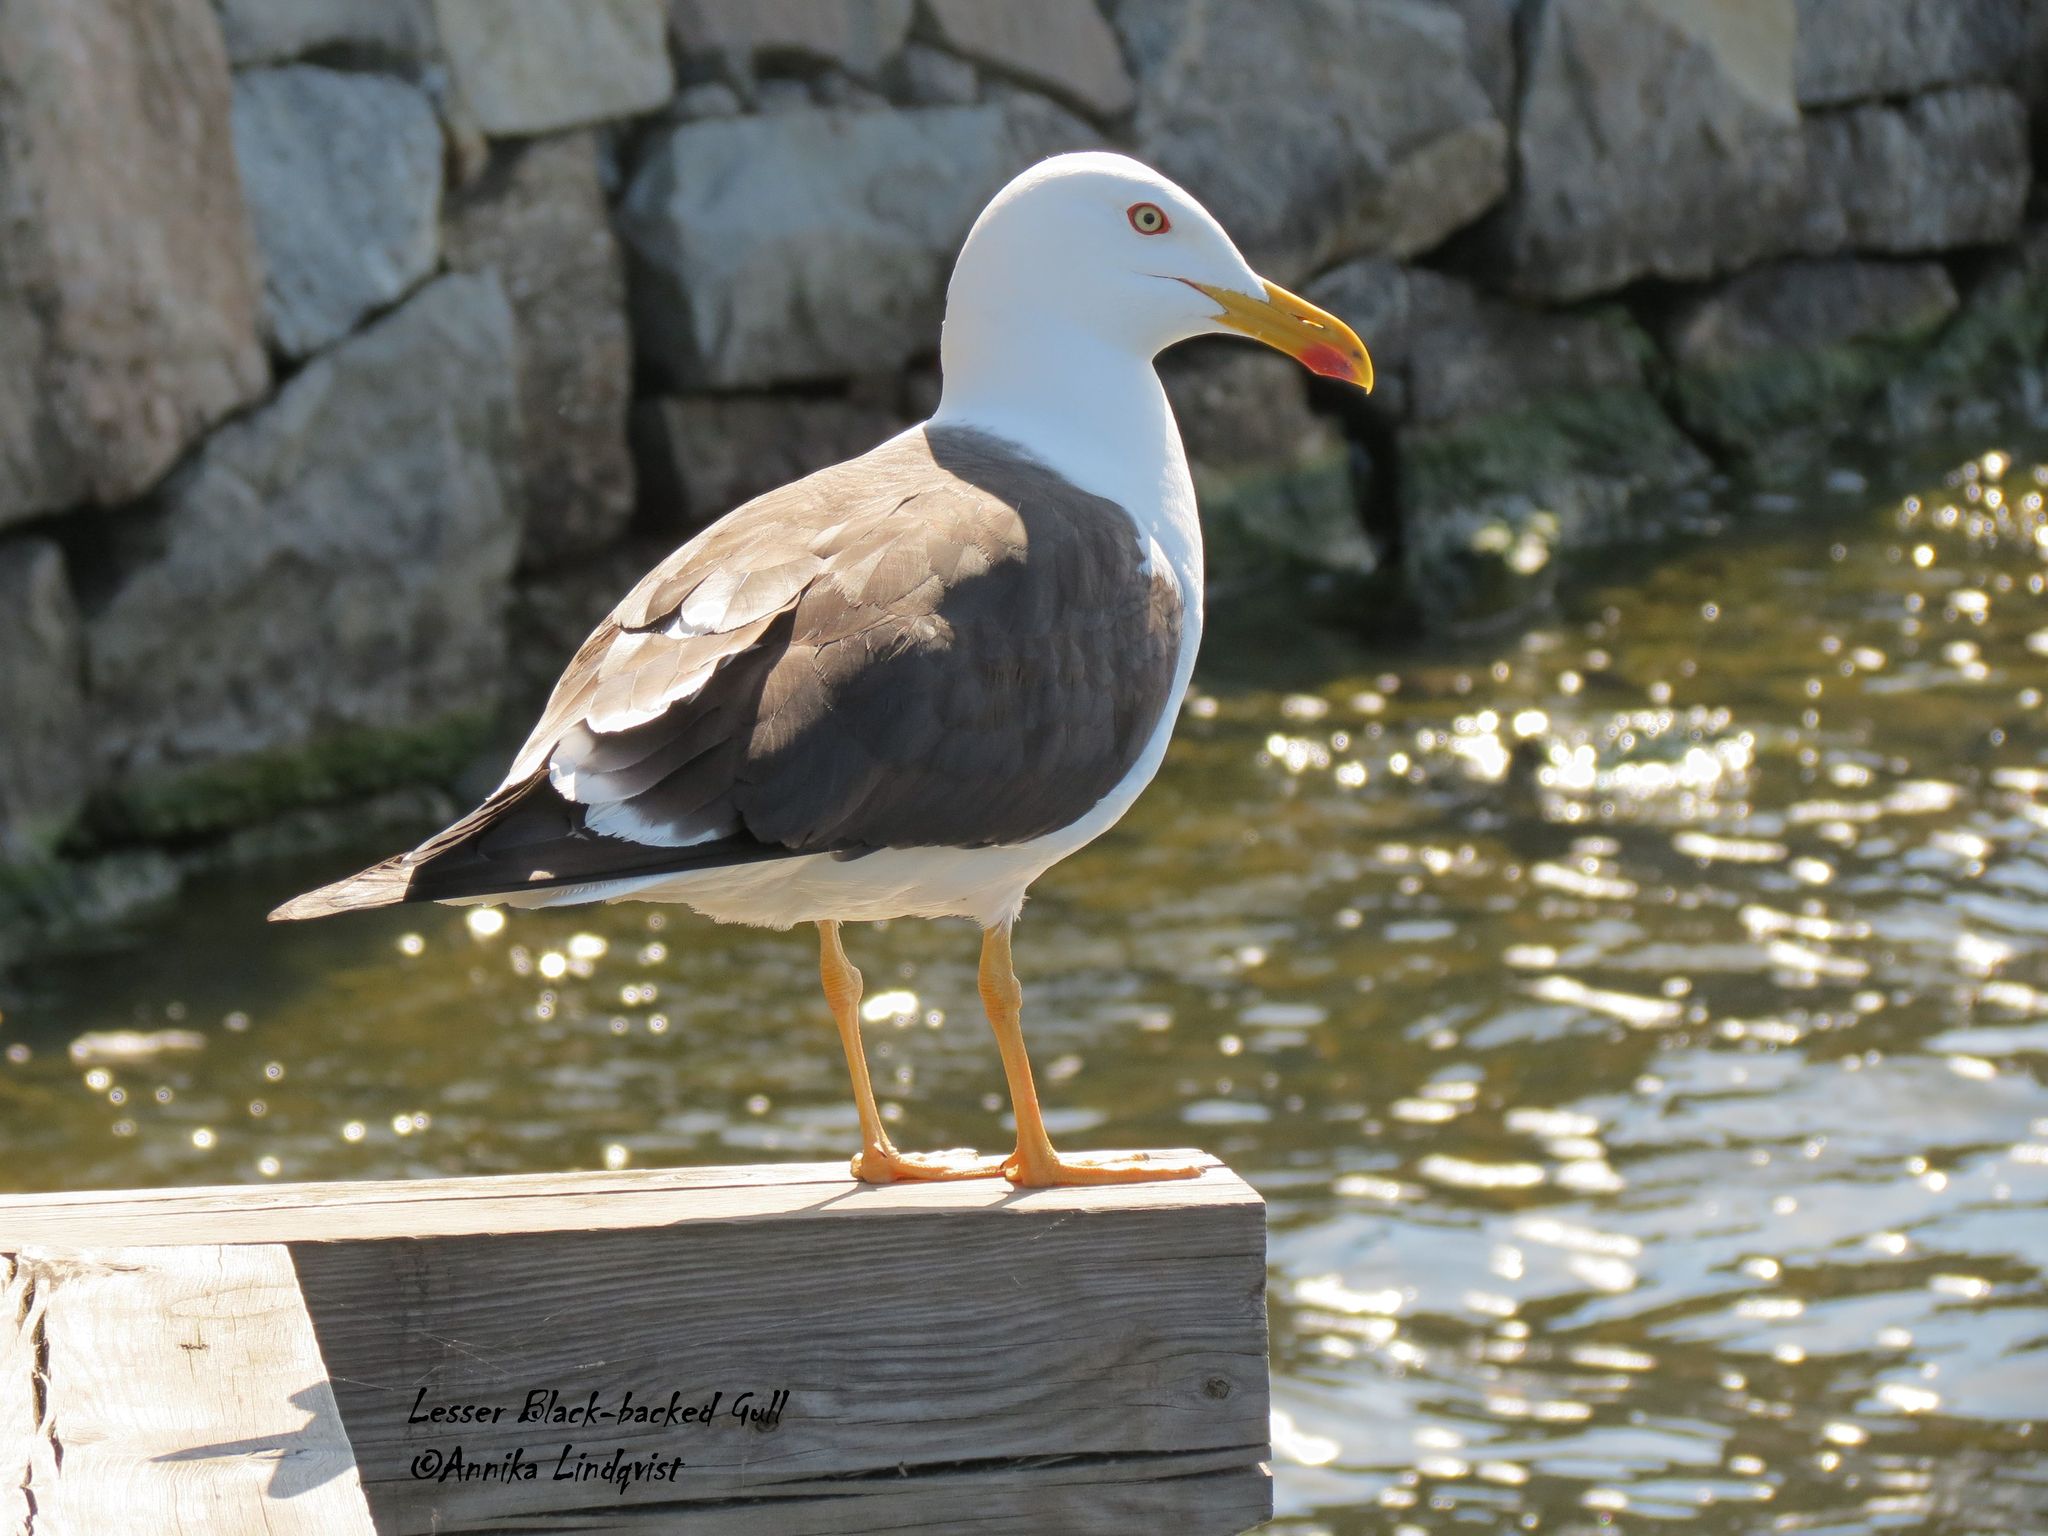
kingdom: Animalia
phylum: Chordata
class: Aves
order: Charadriiformes
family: Laridae
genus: Larus
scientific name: Larus fuscus
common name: Lesser black-backed gull
